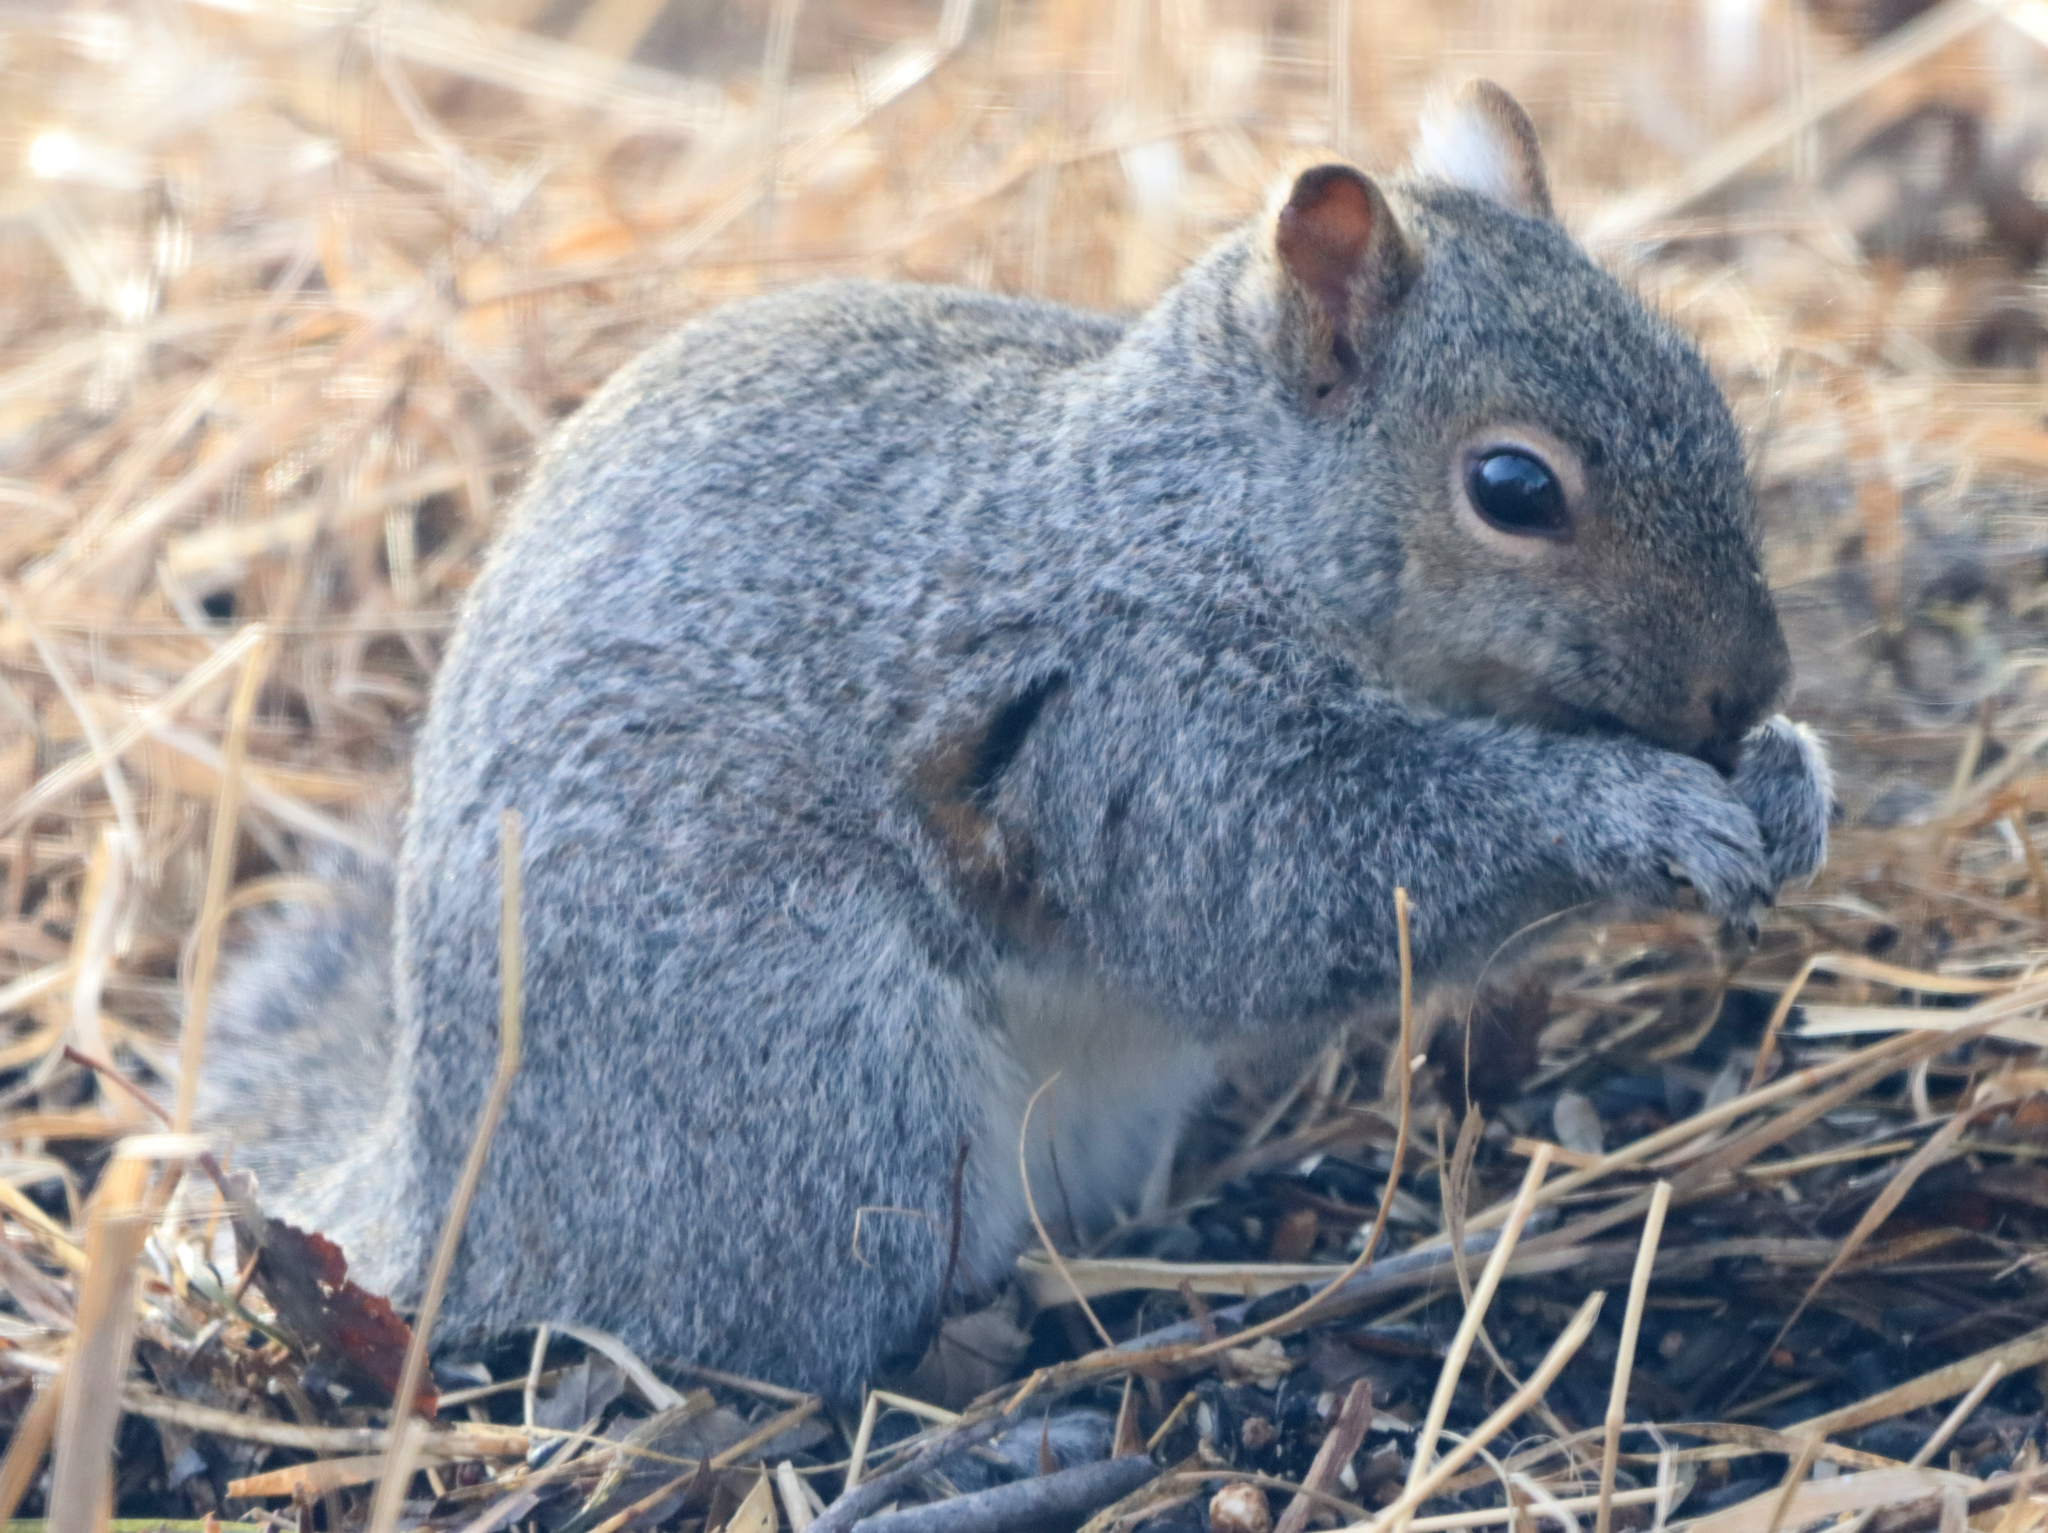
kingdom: Animalia
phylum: Chordata
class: Mammalia
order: Rodentia
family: Sciuridae
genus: Sciurus
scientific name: Sciurus carolinensis
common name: Eastern gray squirrel
